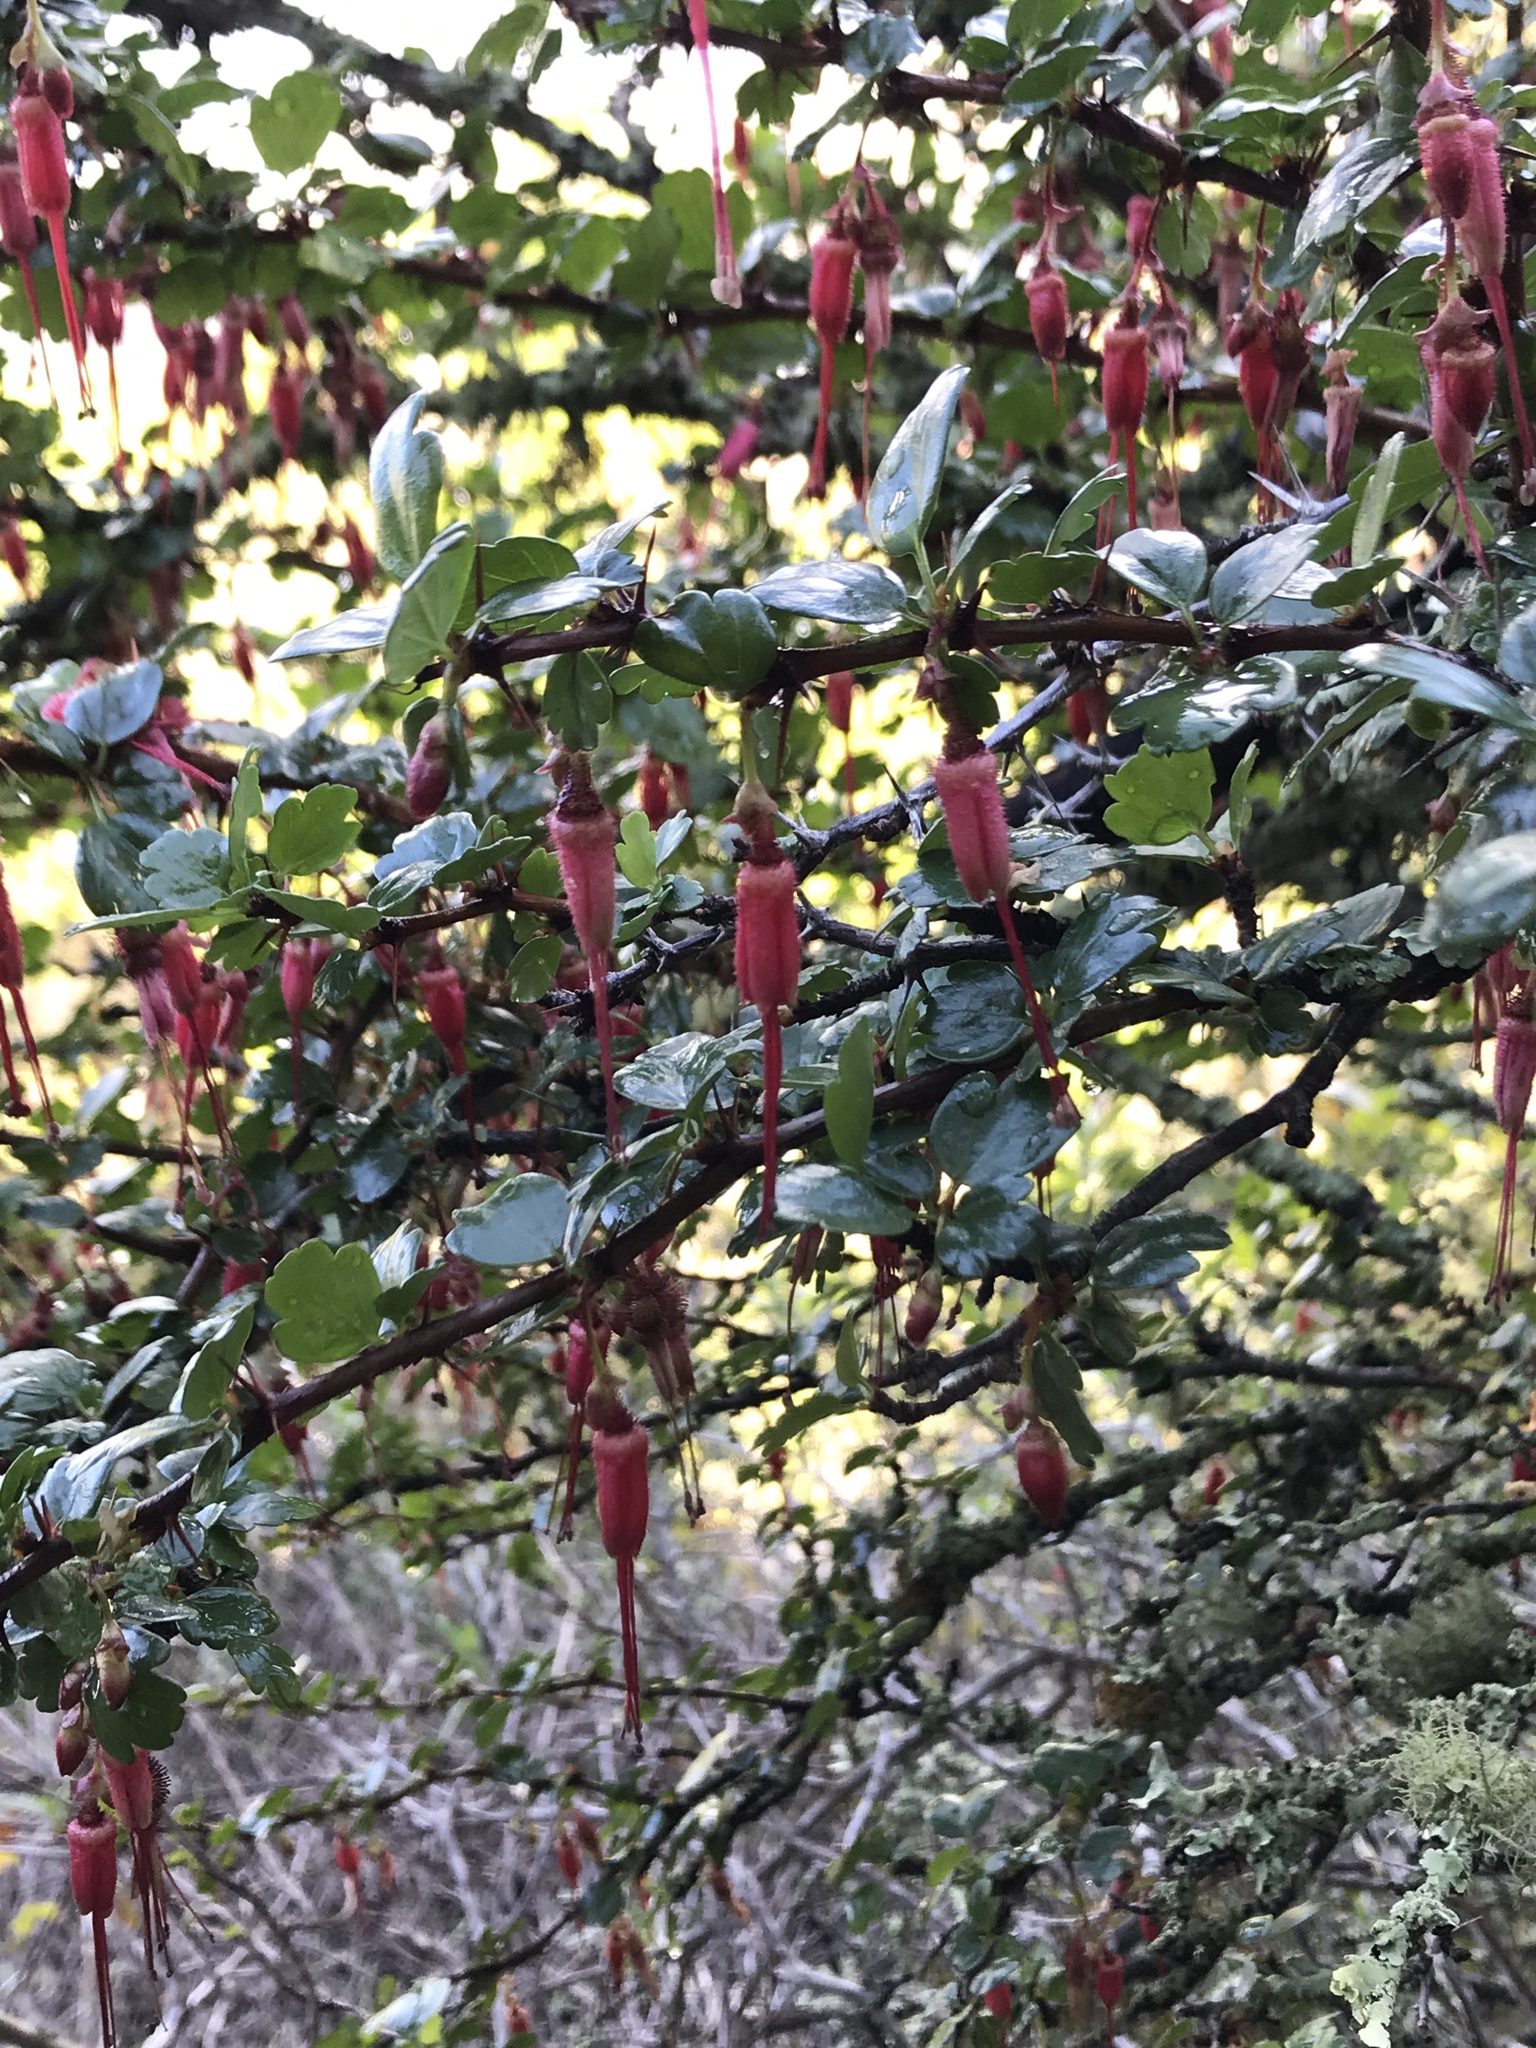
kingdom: Plantae
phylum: Tracheophyta
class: Magnoliopsida
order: Saxifragales
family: Grossulariaceae
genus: Ribes
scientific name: Ribes speciosum
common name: Fuchsia-flower gooseberry
